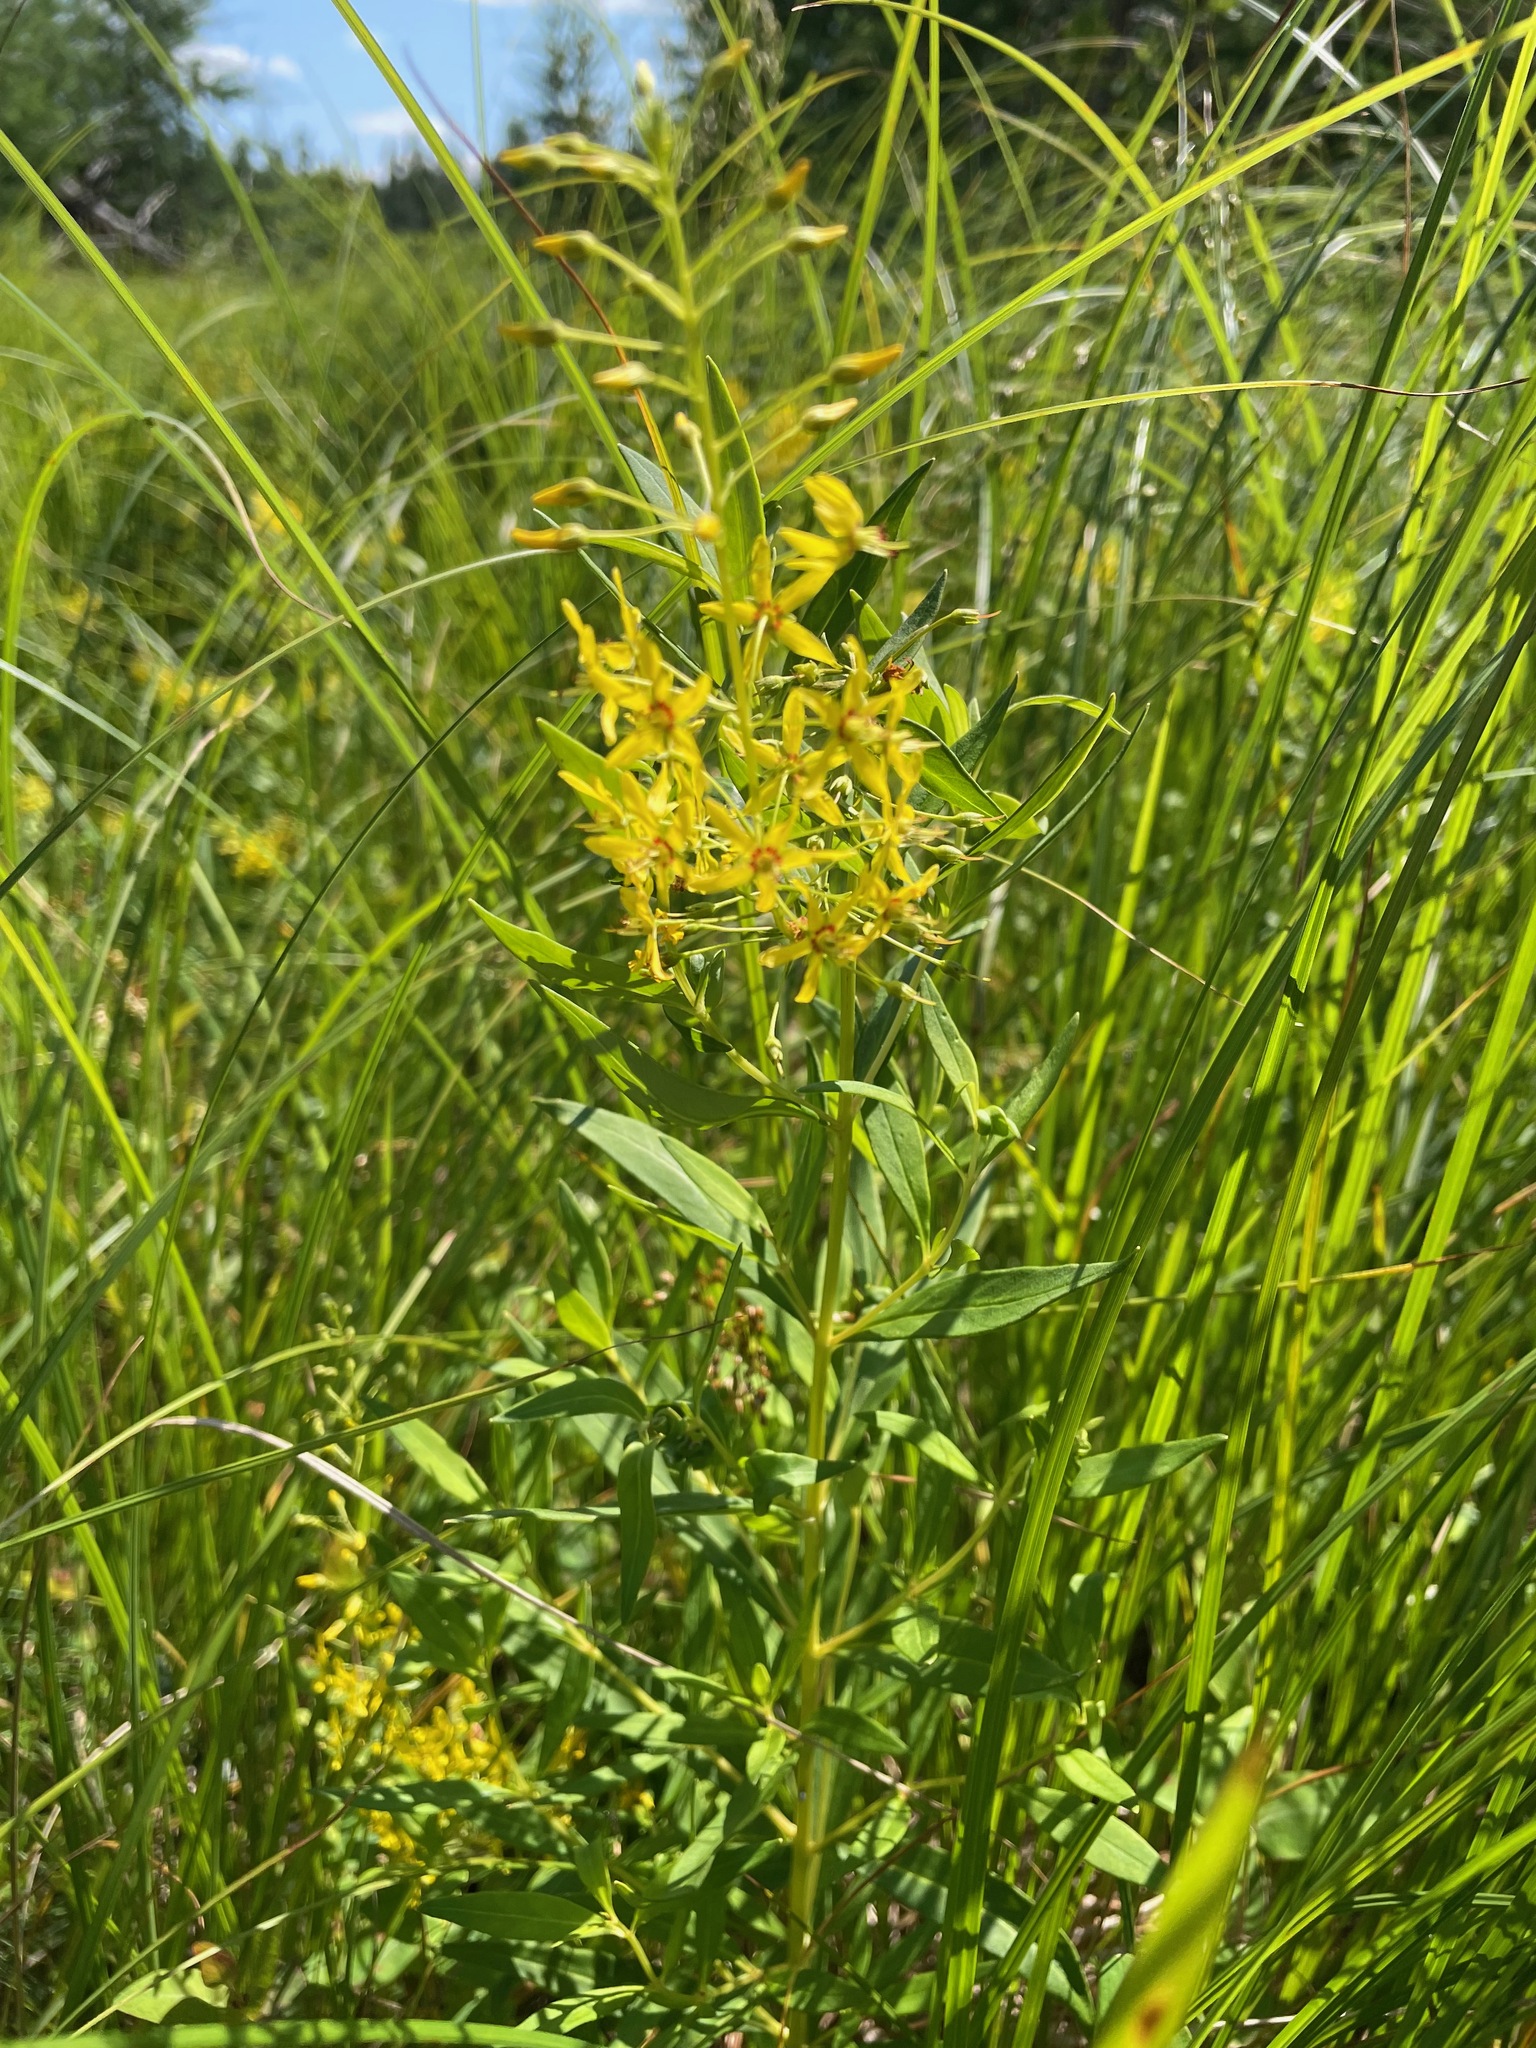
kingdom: Plantae
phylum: Tracheophyta
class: Magnoliopsida
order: Ericales
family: Primulaceae
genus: Lysimachia
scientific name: Lysimachia terrestris
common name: Lake loosestrife
